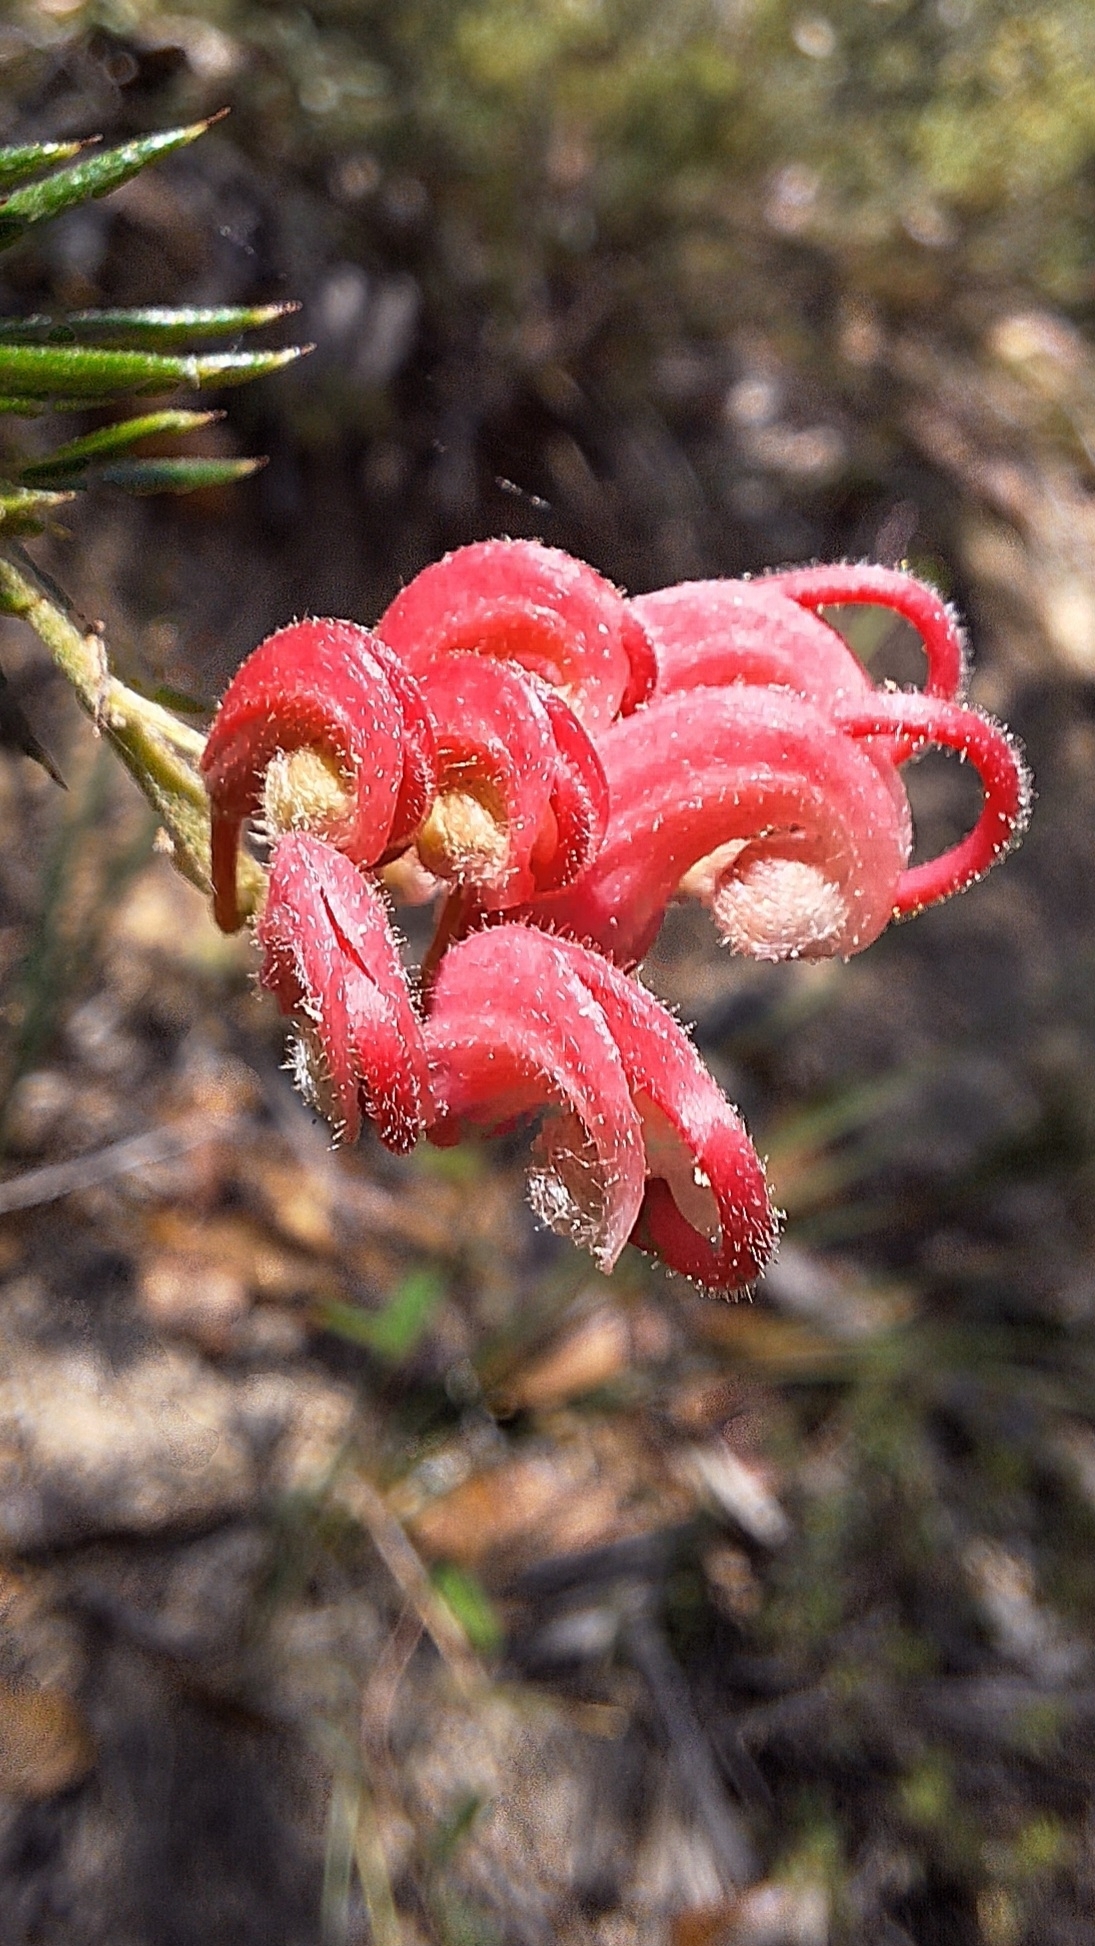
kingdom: Plantae
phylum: Tracheophyta
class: Magnoliopsida
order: Proteales
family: Proteaceae
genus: Grevillea
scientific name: Grevillea lavandulacea
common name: Lavender grevillea
